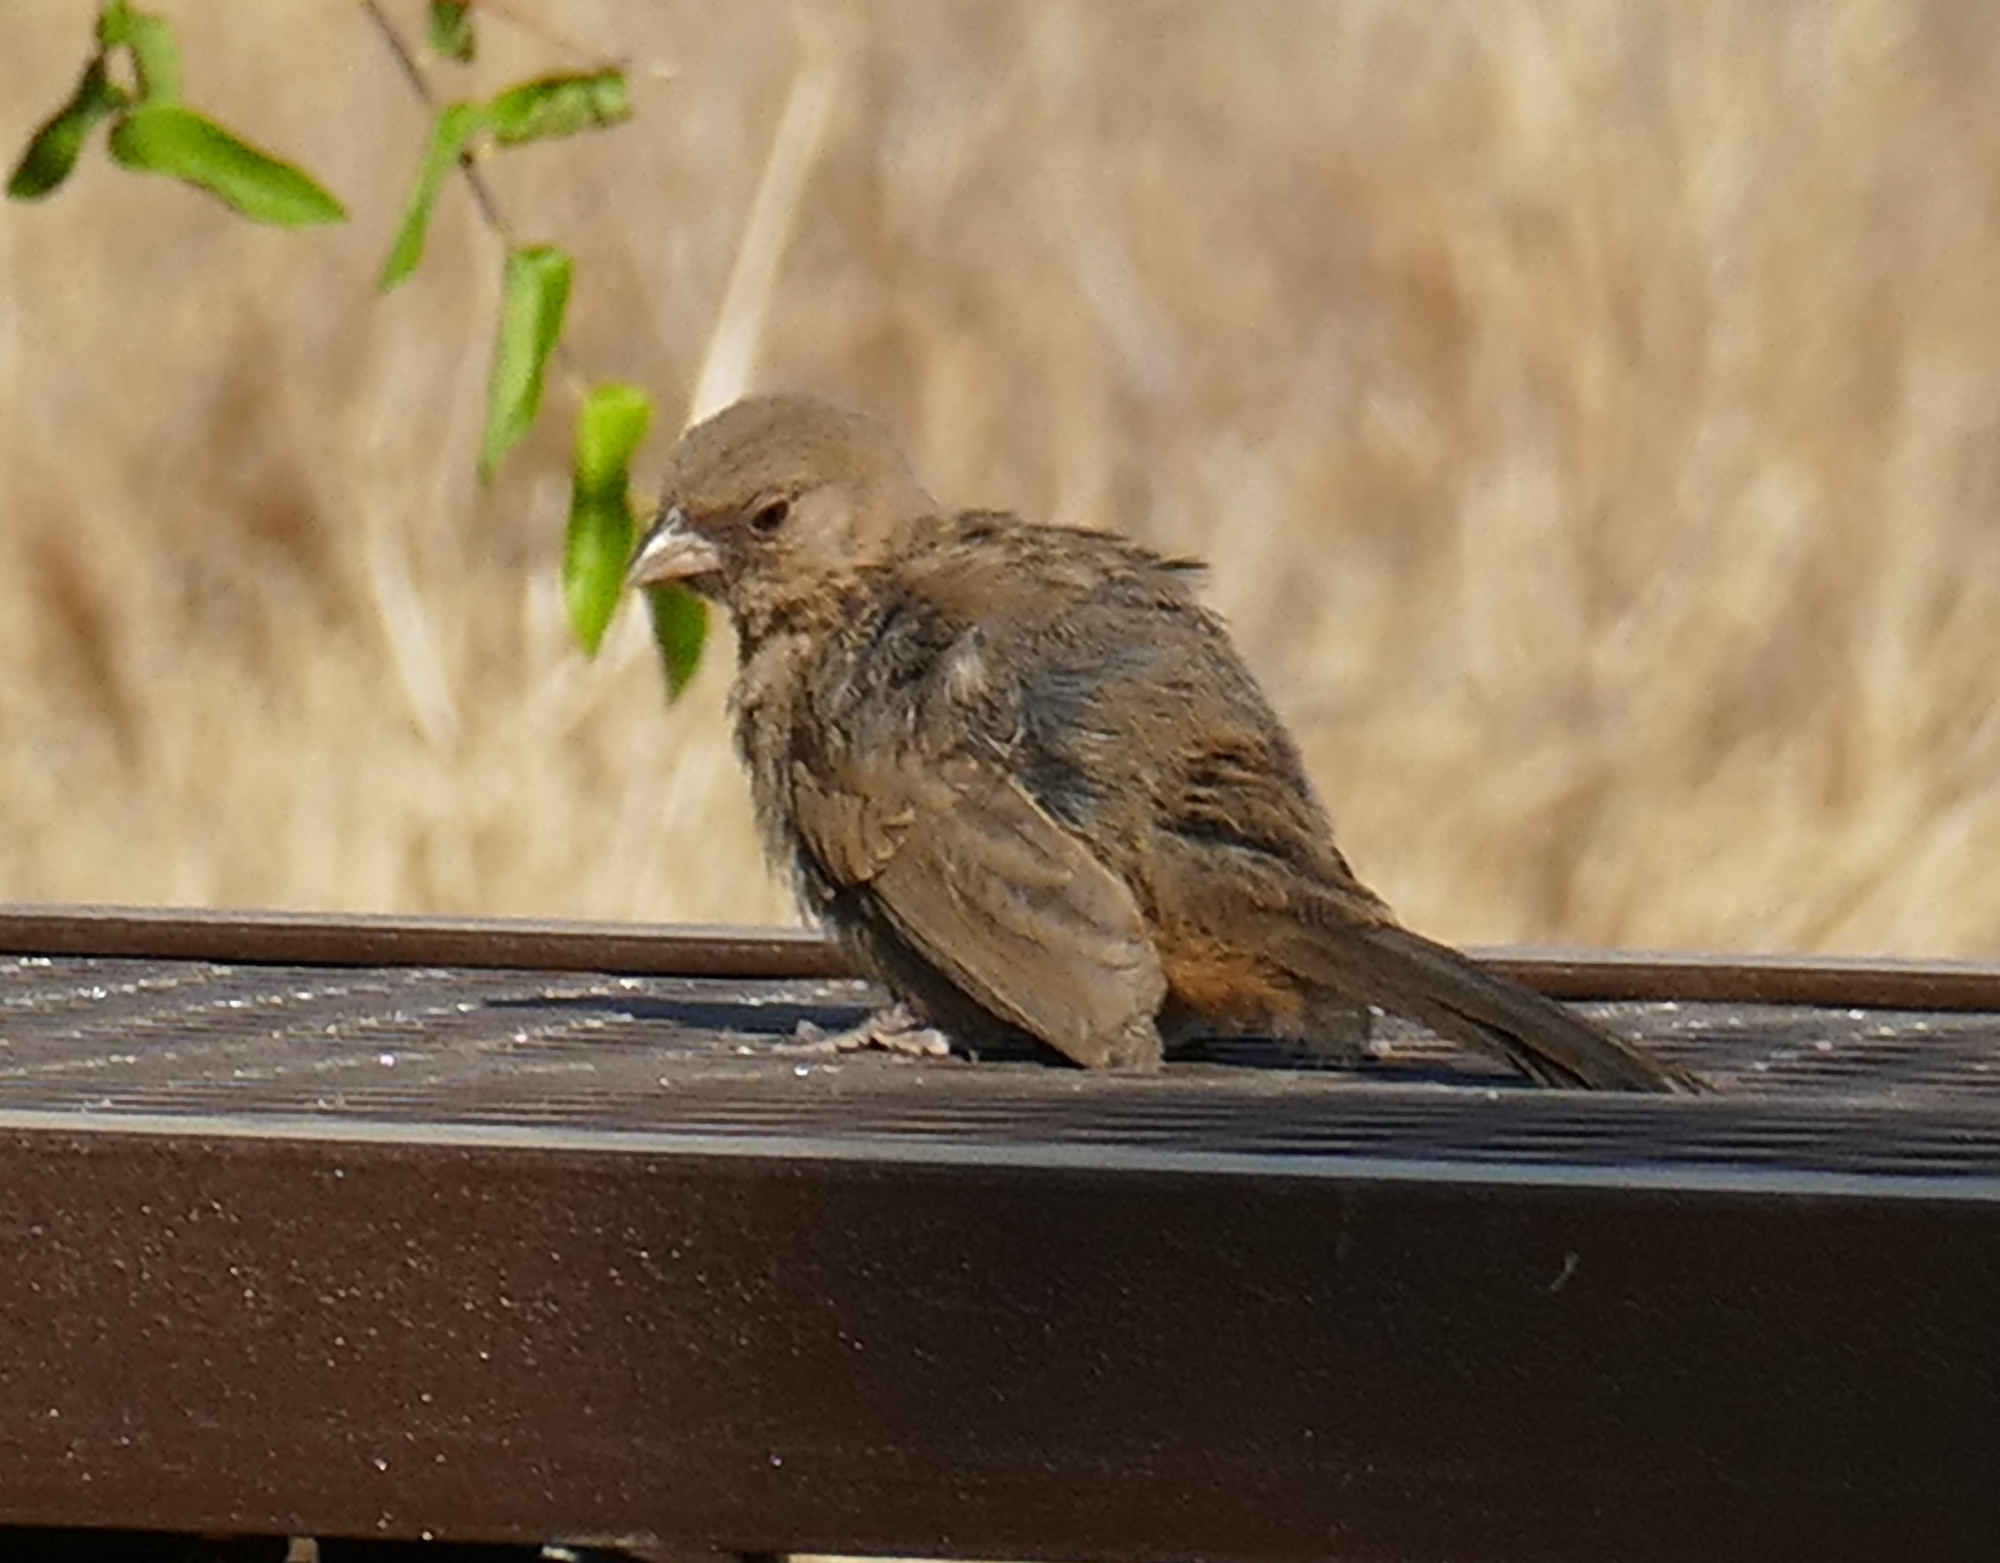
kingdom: Animalia
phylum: Chordata
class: Aves
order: Passeriformes
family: Passerellidae
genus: Melozone
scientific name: Melozone aberti
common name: Abert's towhee
